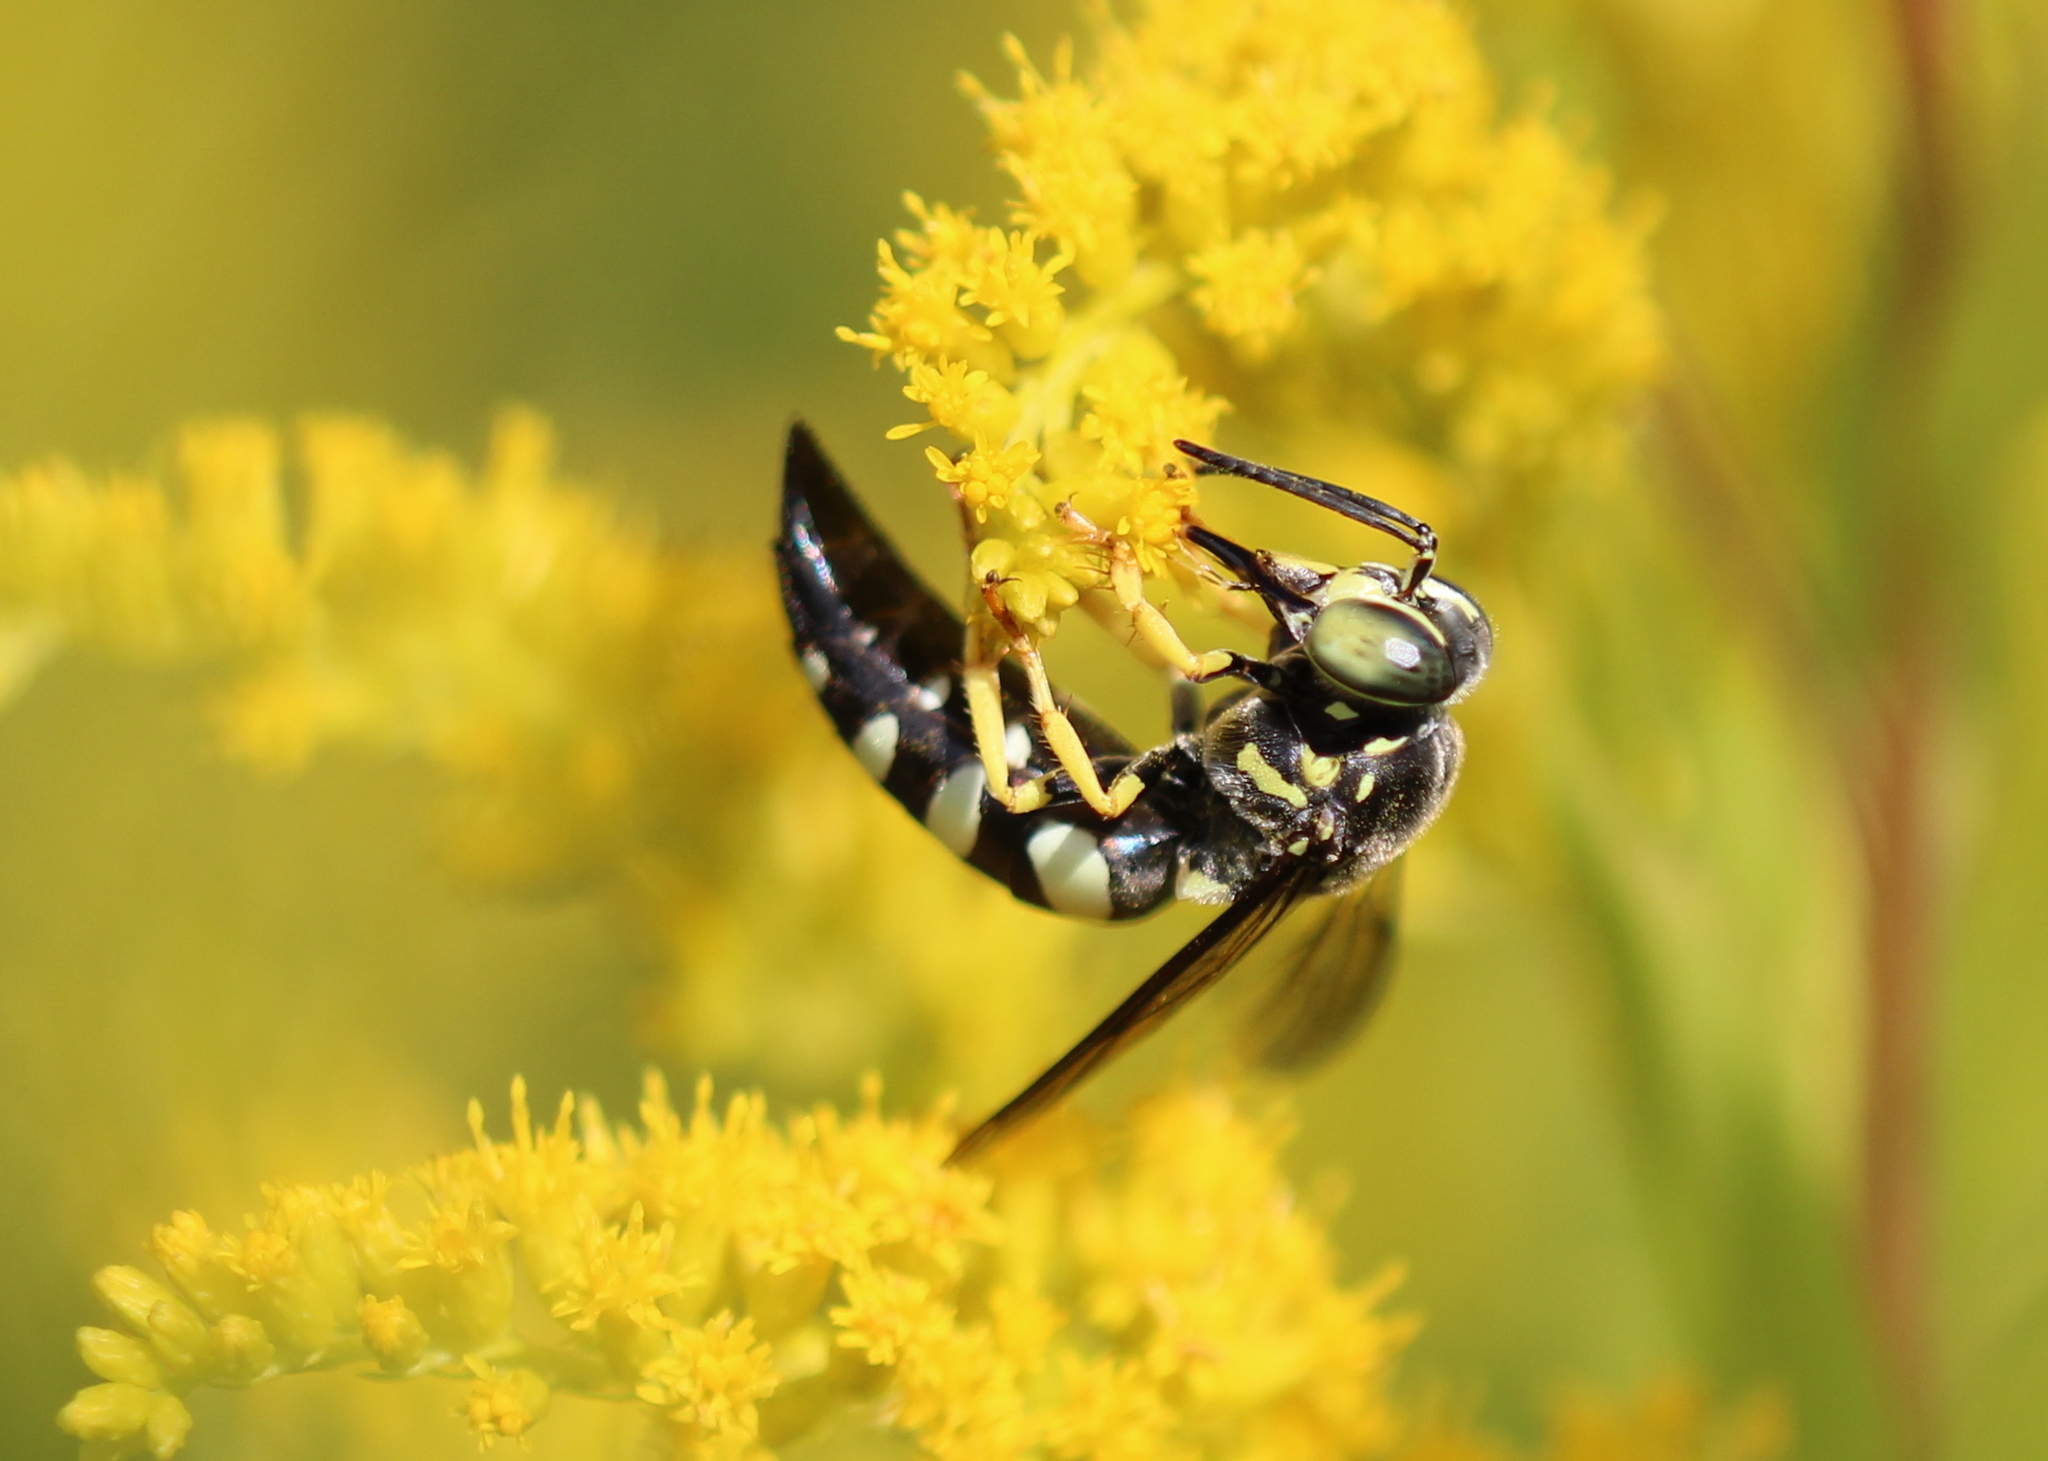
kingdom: Animalia
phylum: Arthropoda
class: Insecta
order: Hymenoptera
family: Crabronidae
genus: Bicyrtes
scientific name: Bicyrtes quadrifasciatus
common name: Four-banded stink bug hunter wasp
